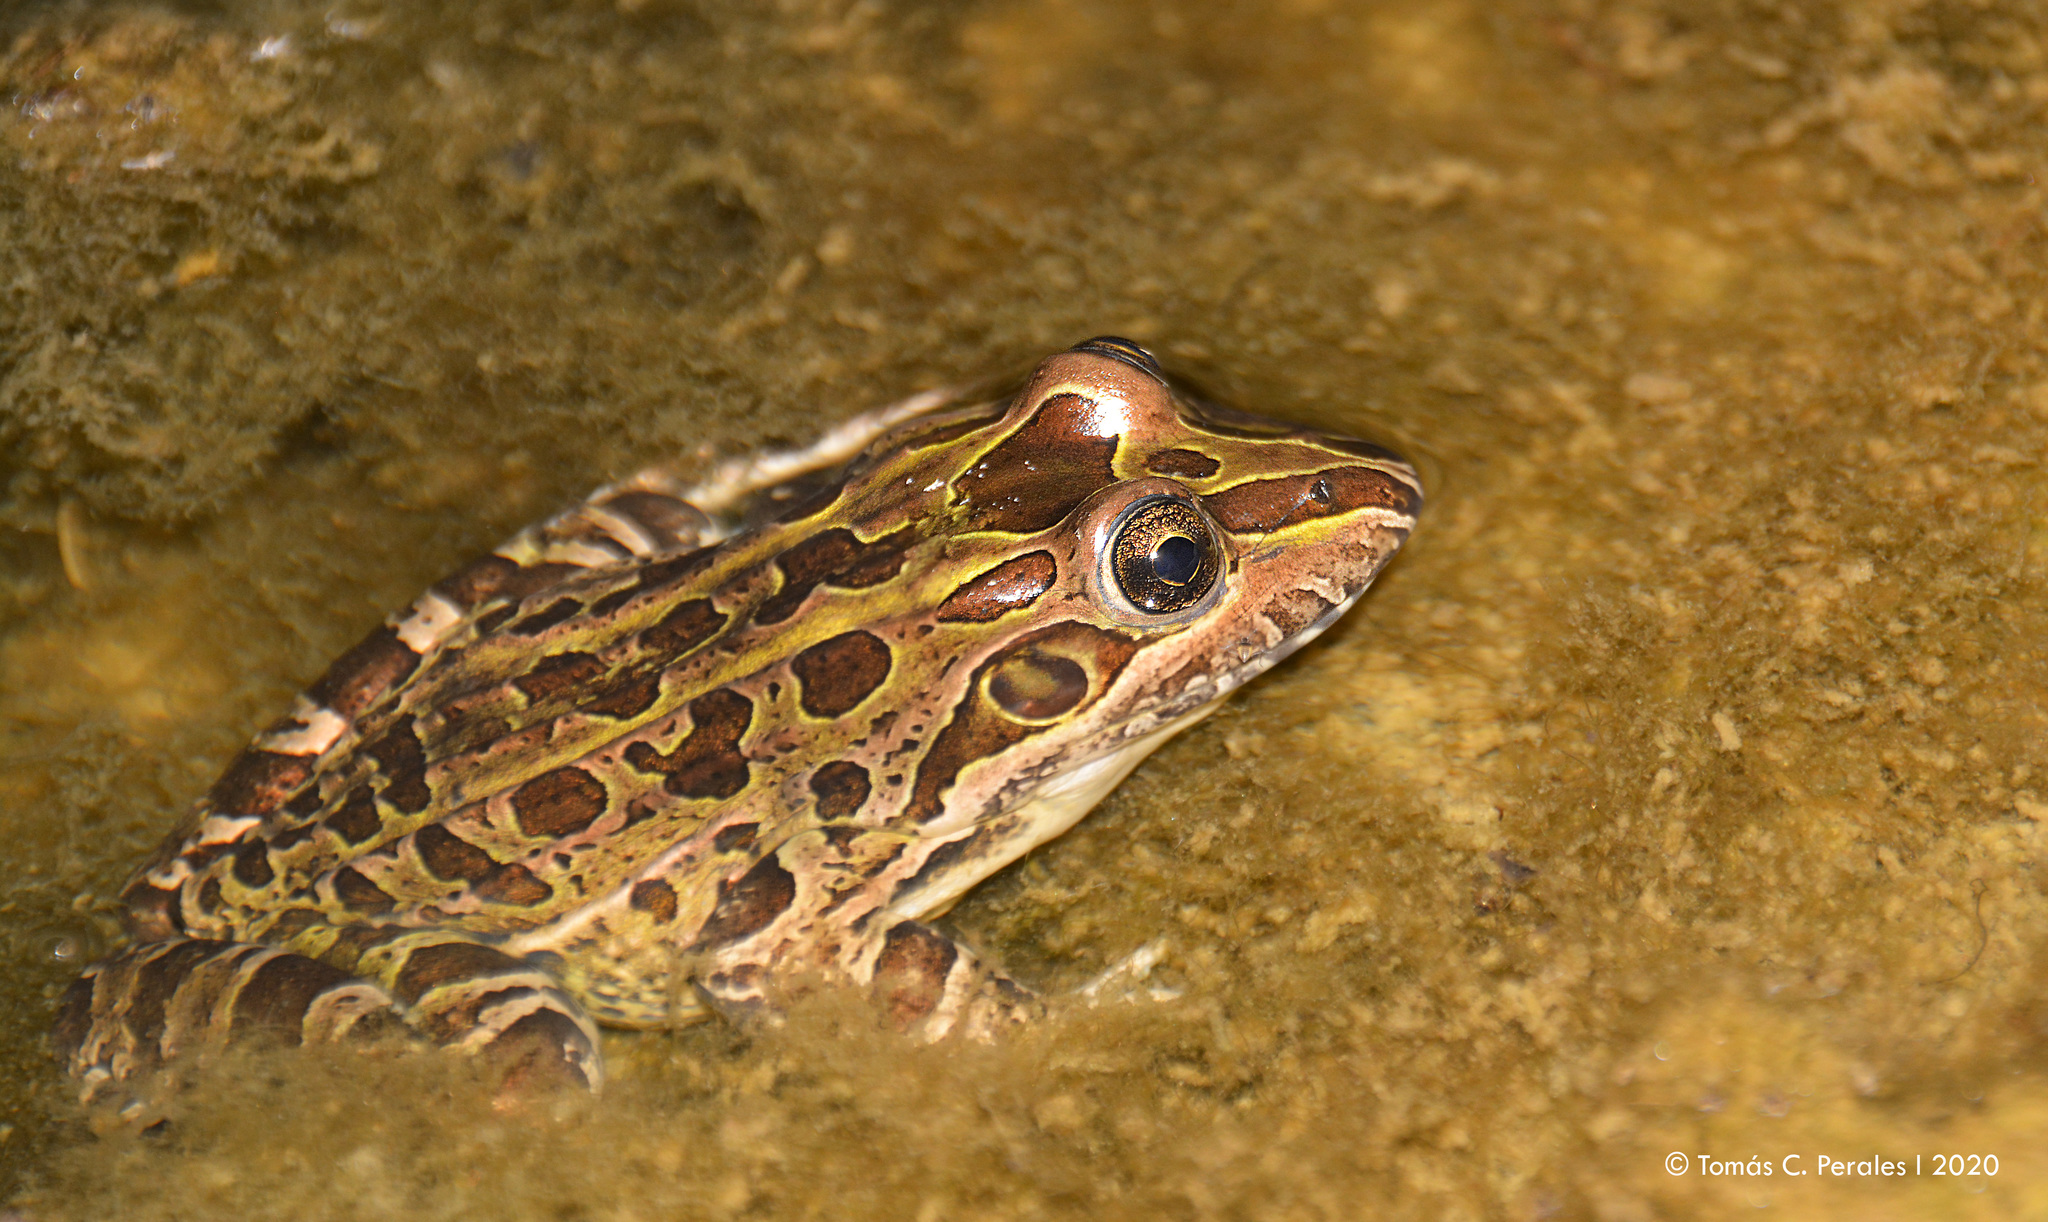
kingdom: Animalia
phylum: Chordata
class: Amphibia
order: Anura
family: Leptodactylidae
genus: Leptodactylus
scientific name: Leptodactylus luctator
